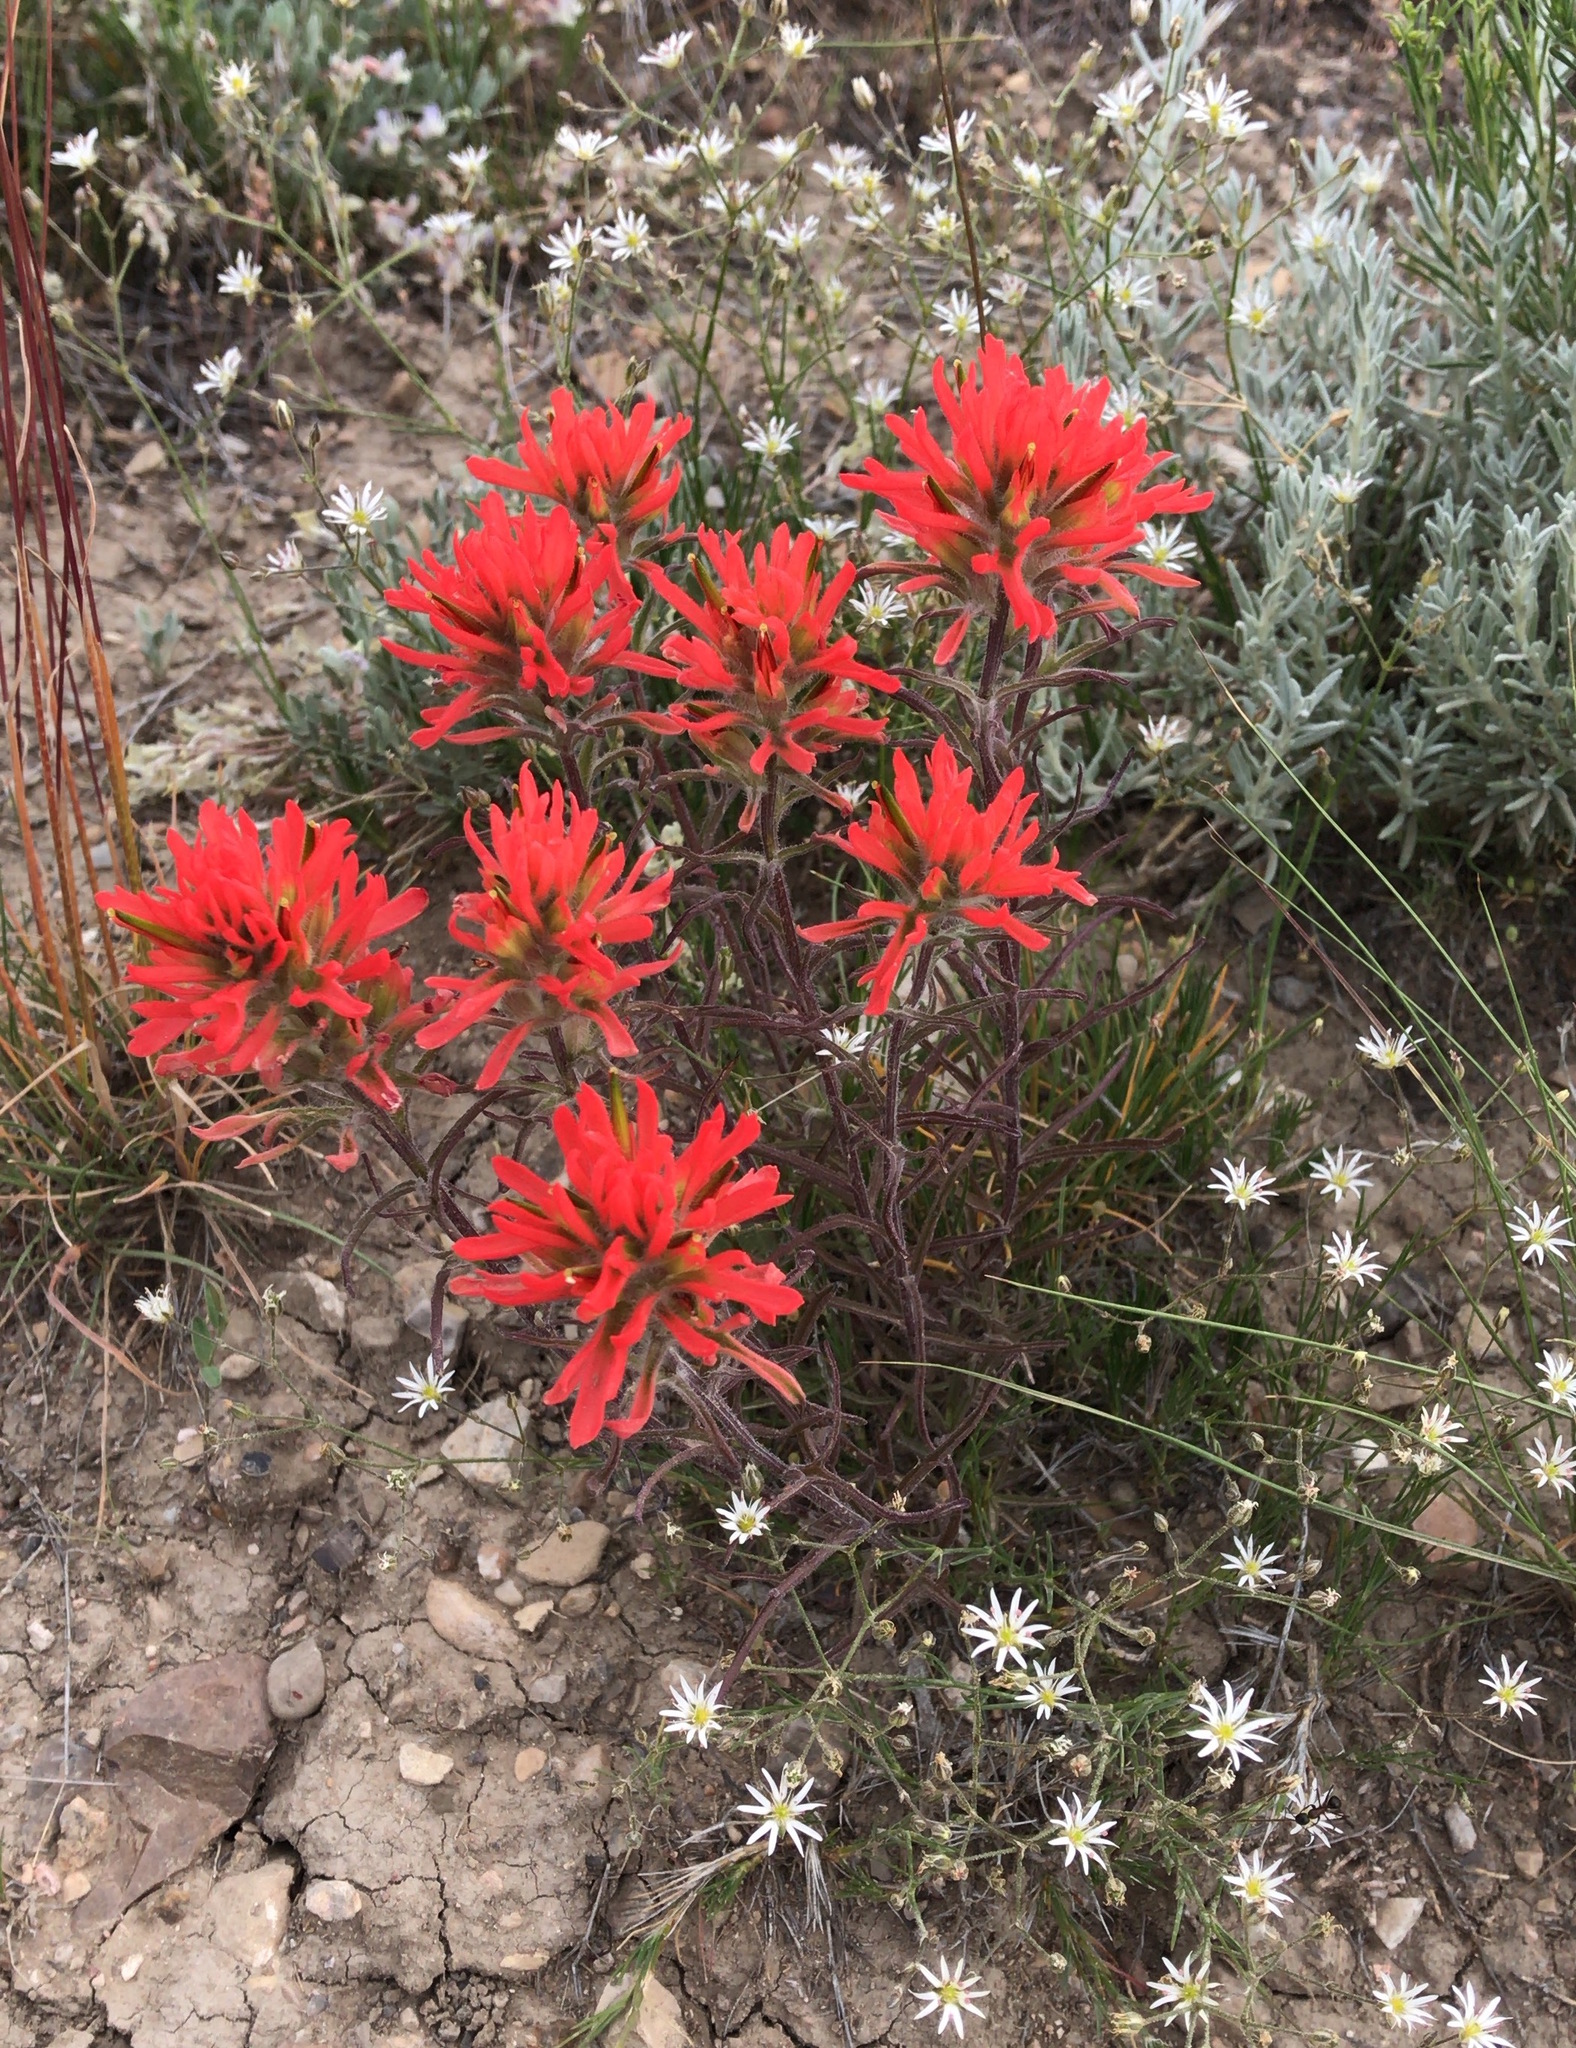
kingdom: Plantae
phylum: Tracheophyta
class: Magnoliopsida
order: Lamiales
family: Orobanchaceae
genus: Castilleja
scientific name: Castilleja chromosa
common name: Desert paintbrush
